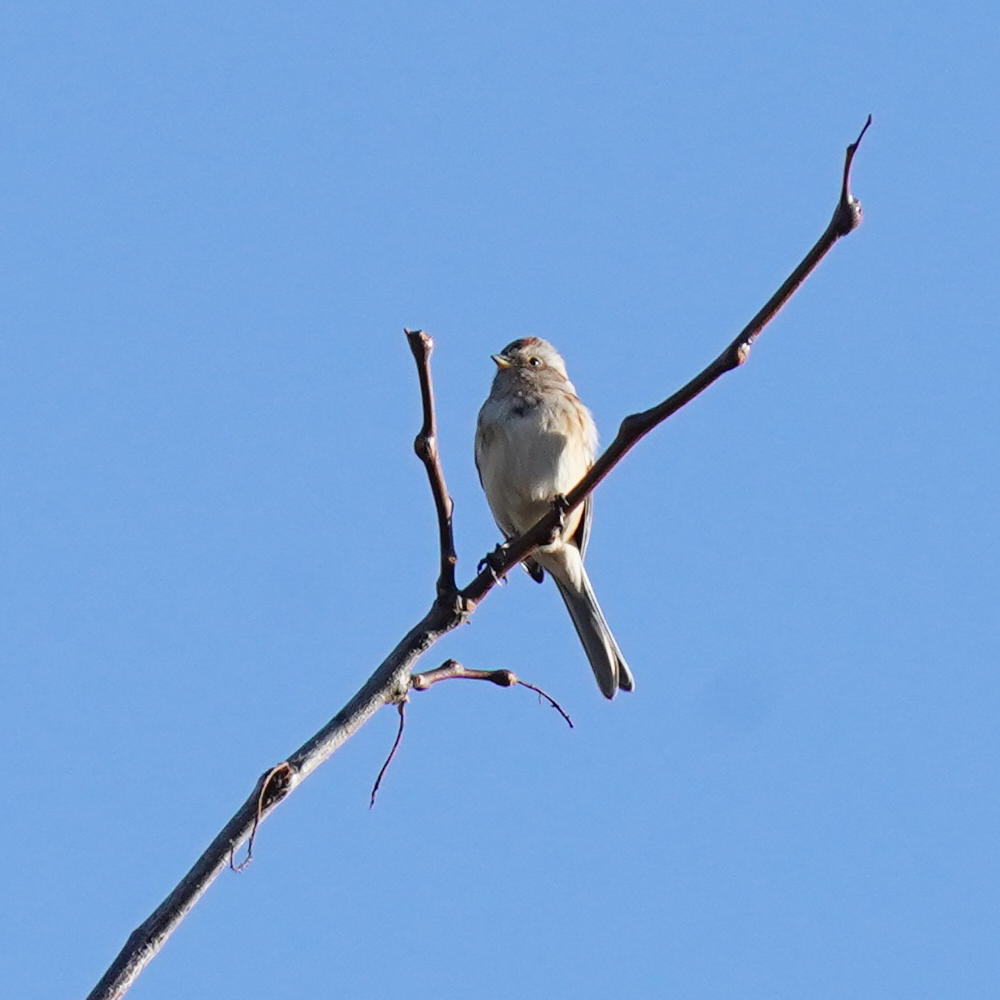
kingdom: Animalia
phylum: Chordata
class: Aves
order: Passeriformes
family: Passerellidae
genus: Spizelloides
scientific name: Spizelloides arborea
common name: American tree sparrow
